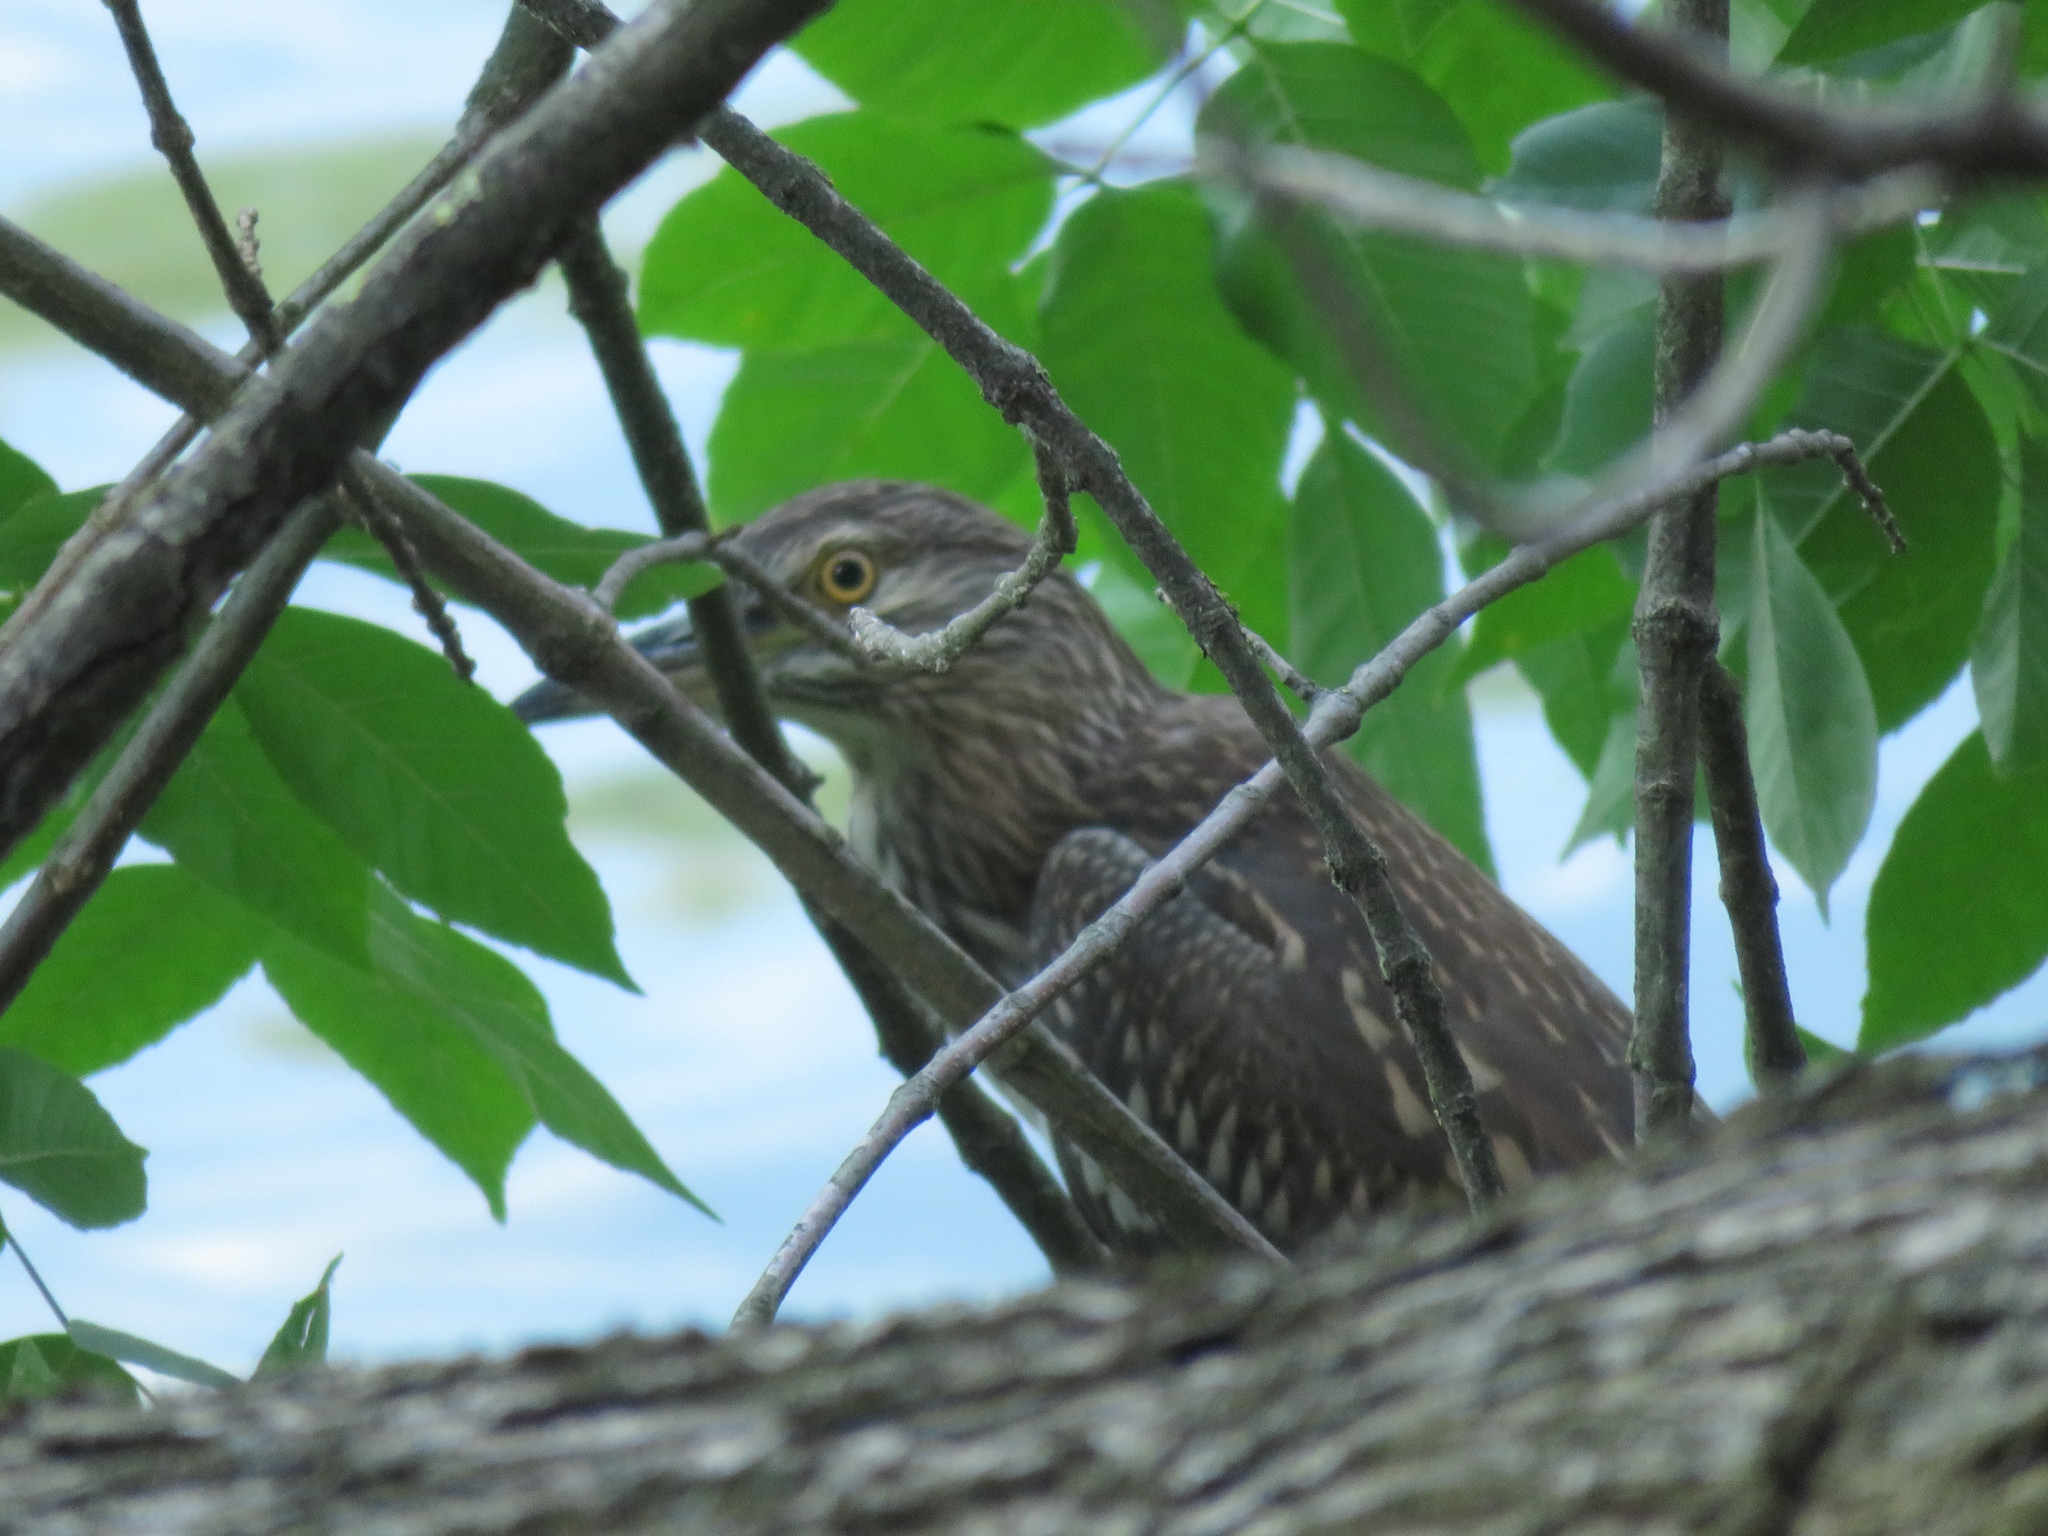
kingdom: Animalia
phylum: Chordata
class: Aves
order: Pelecaniformes
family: Ardeidae
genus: Nycticorax
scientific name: Nycticorax nycticorax
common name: Black-crowned night heron
